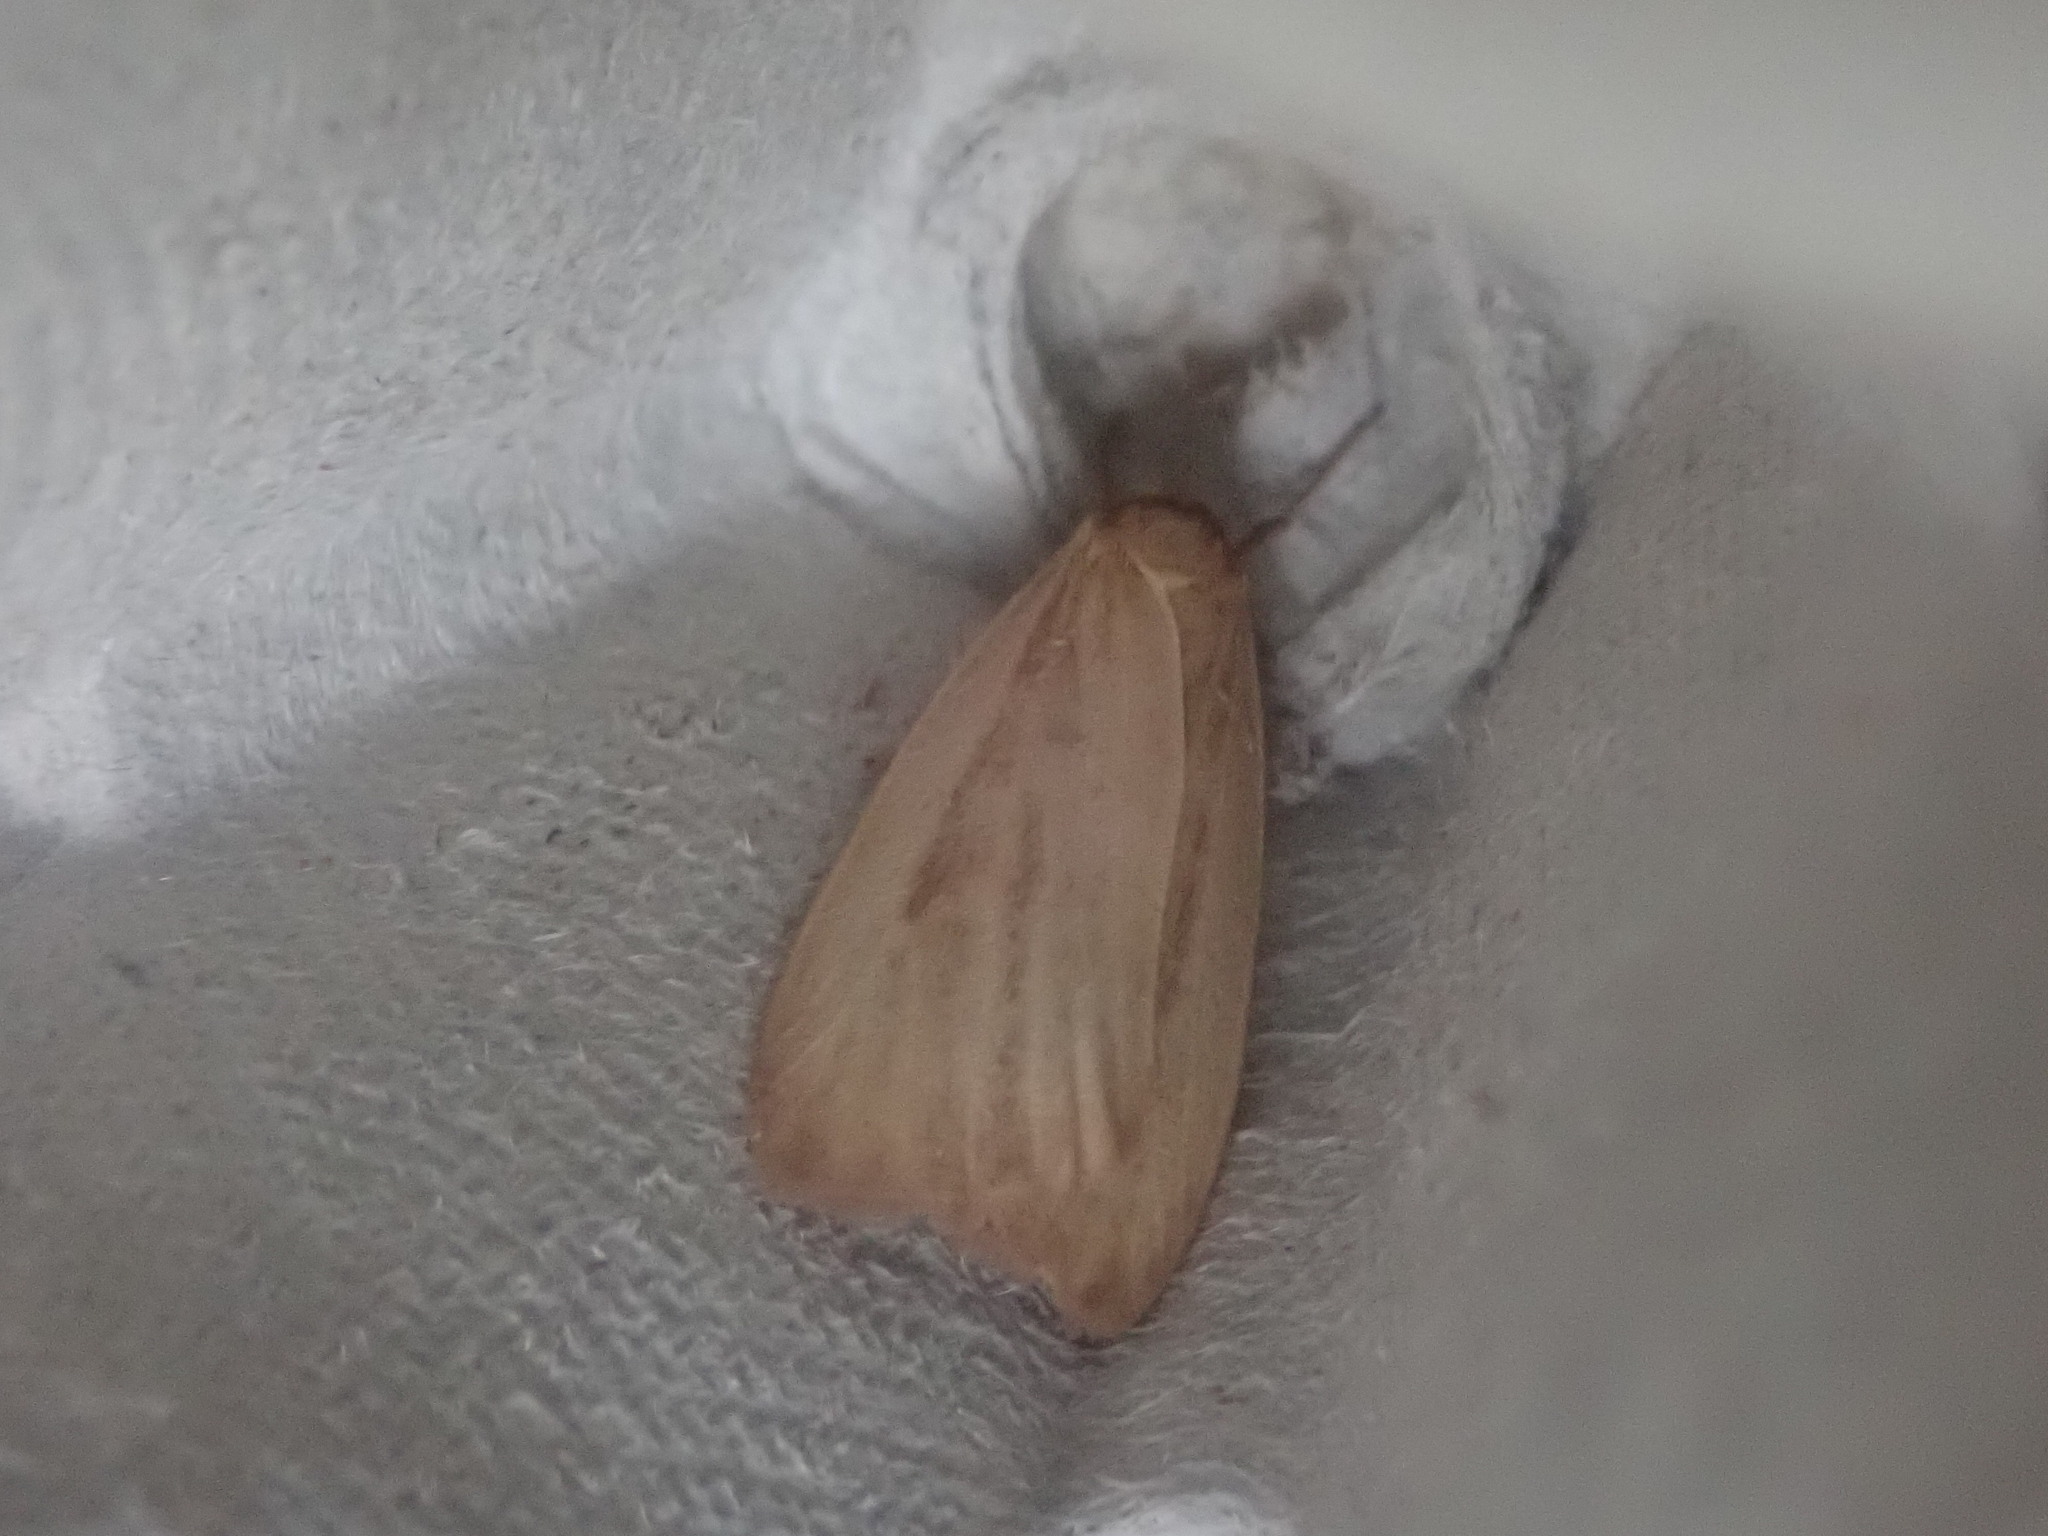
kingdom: Animalia
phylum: Arthropoda
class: Insecta
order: Lepidoptera
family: Erebidae
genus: Crambidia
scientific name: Crambidia pallida
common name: Pale lichen moth
